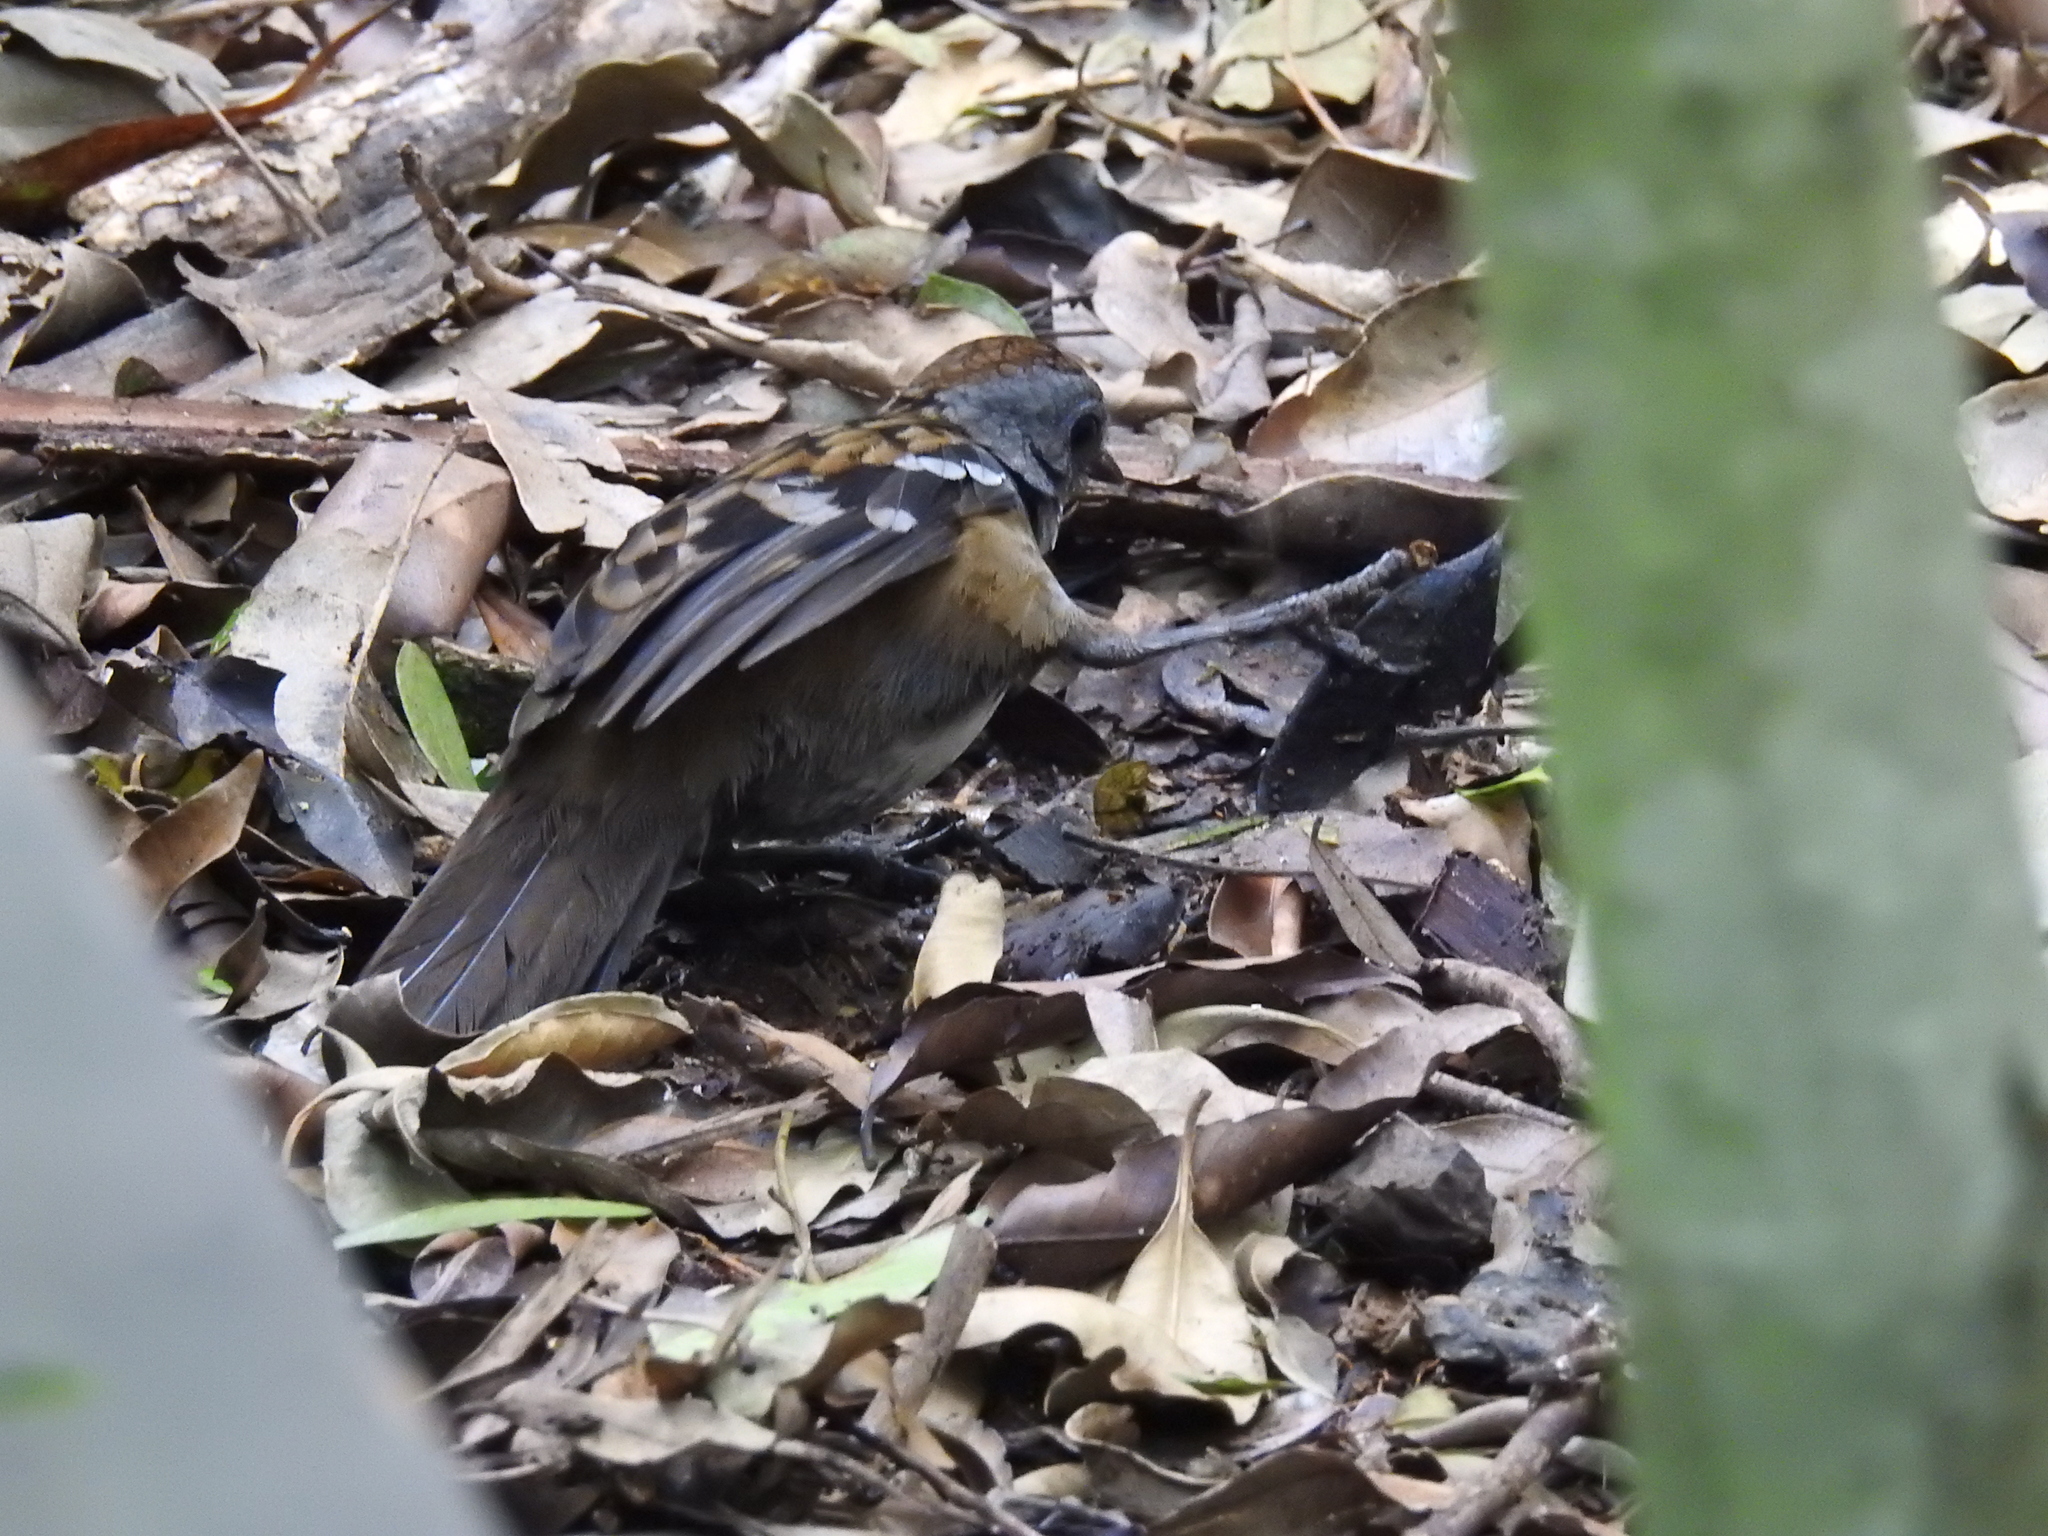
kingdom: Animalia
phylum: Chordata
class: Aves
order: Passeriformes
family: Orthonychidae
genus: Orthonyx
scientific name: Orthonyx temminckii
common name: Australian logrunner
